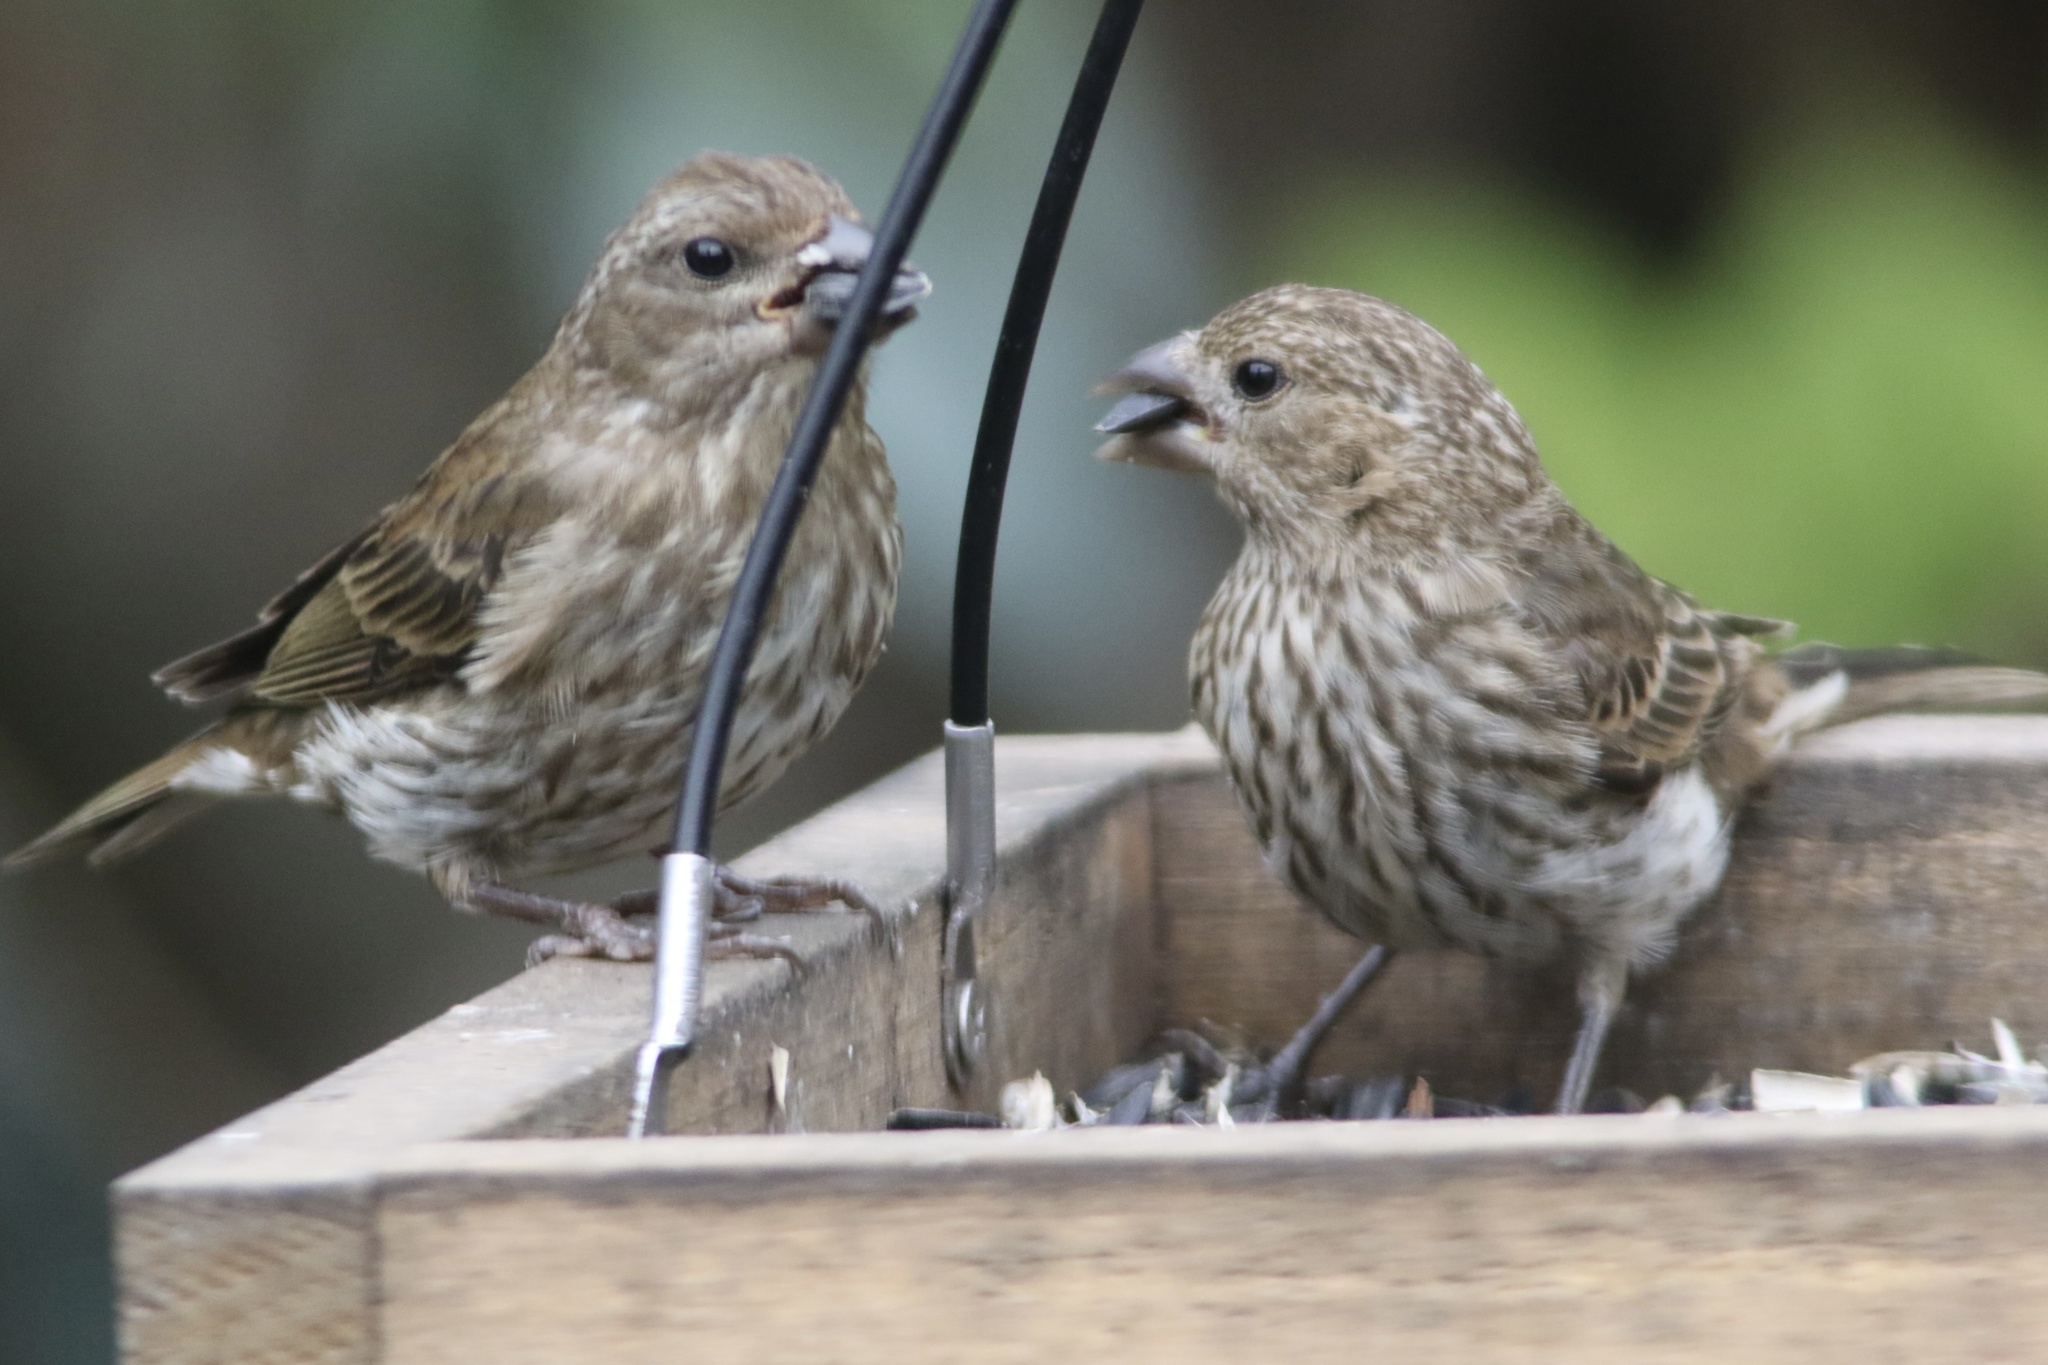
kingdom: Animalia
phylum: Chordata
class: Aves
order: Passeriformes
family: Fringillidae
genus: Haemorhous
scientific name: Haemorhous purpureus
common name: Purple finch
